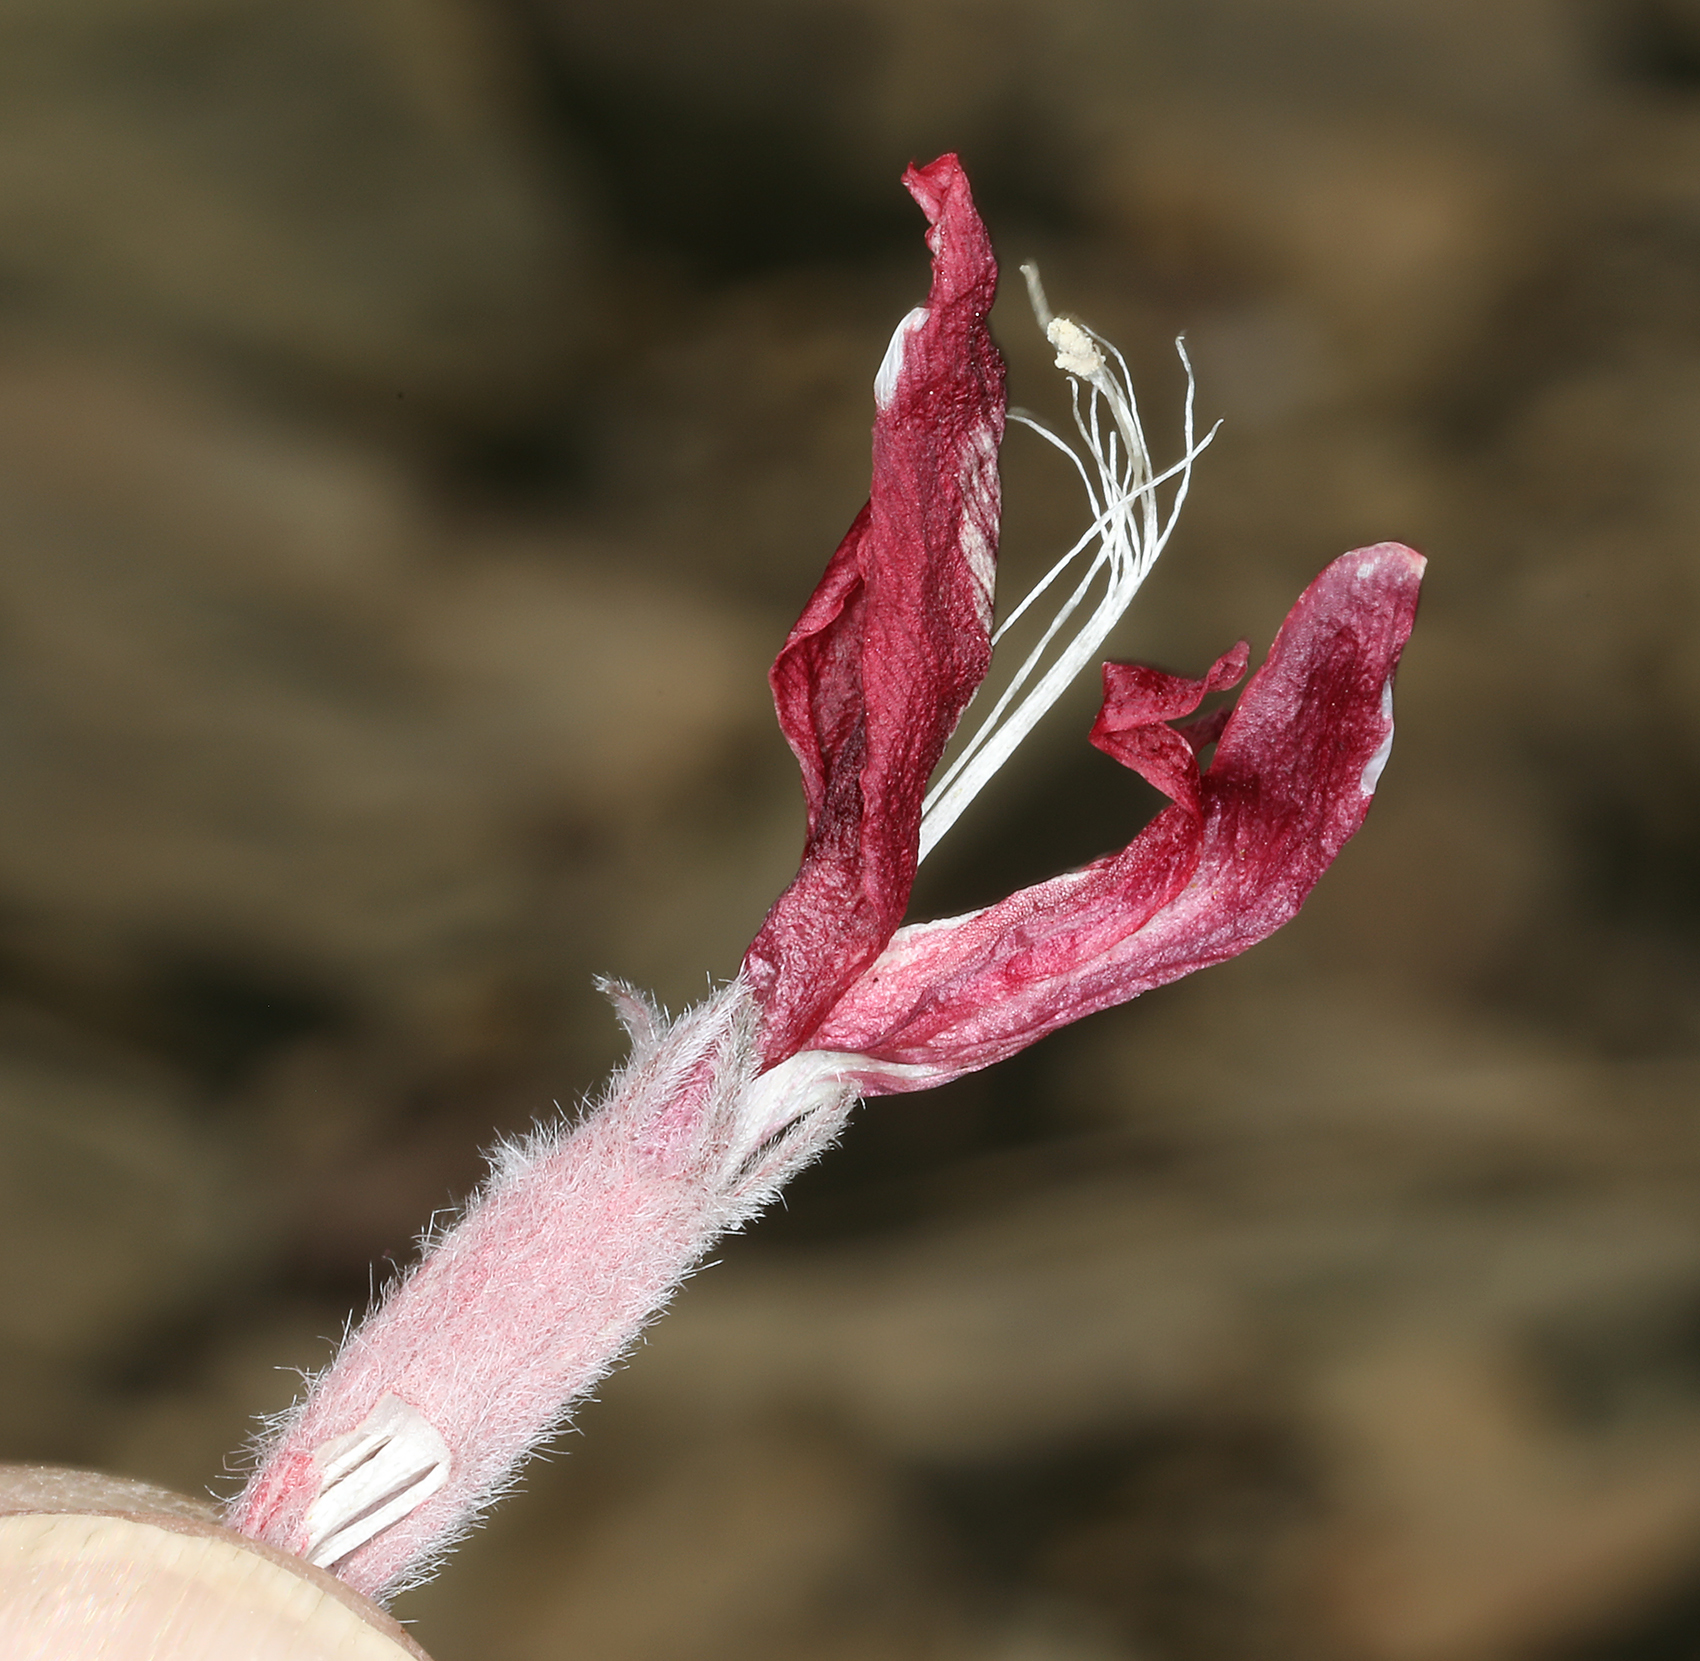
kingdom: Plantae
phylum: Tracheophyta
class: Magnoliopsida
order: Fabales
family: Fabaceae
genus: Astragalus
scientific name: Astragalus coccineus
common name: Scarlet milk-vetch
